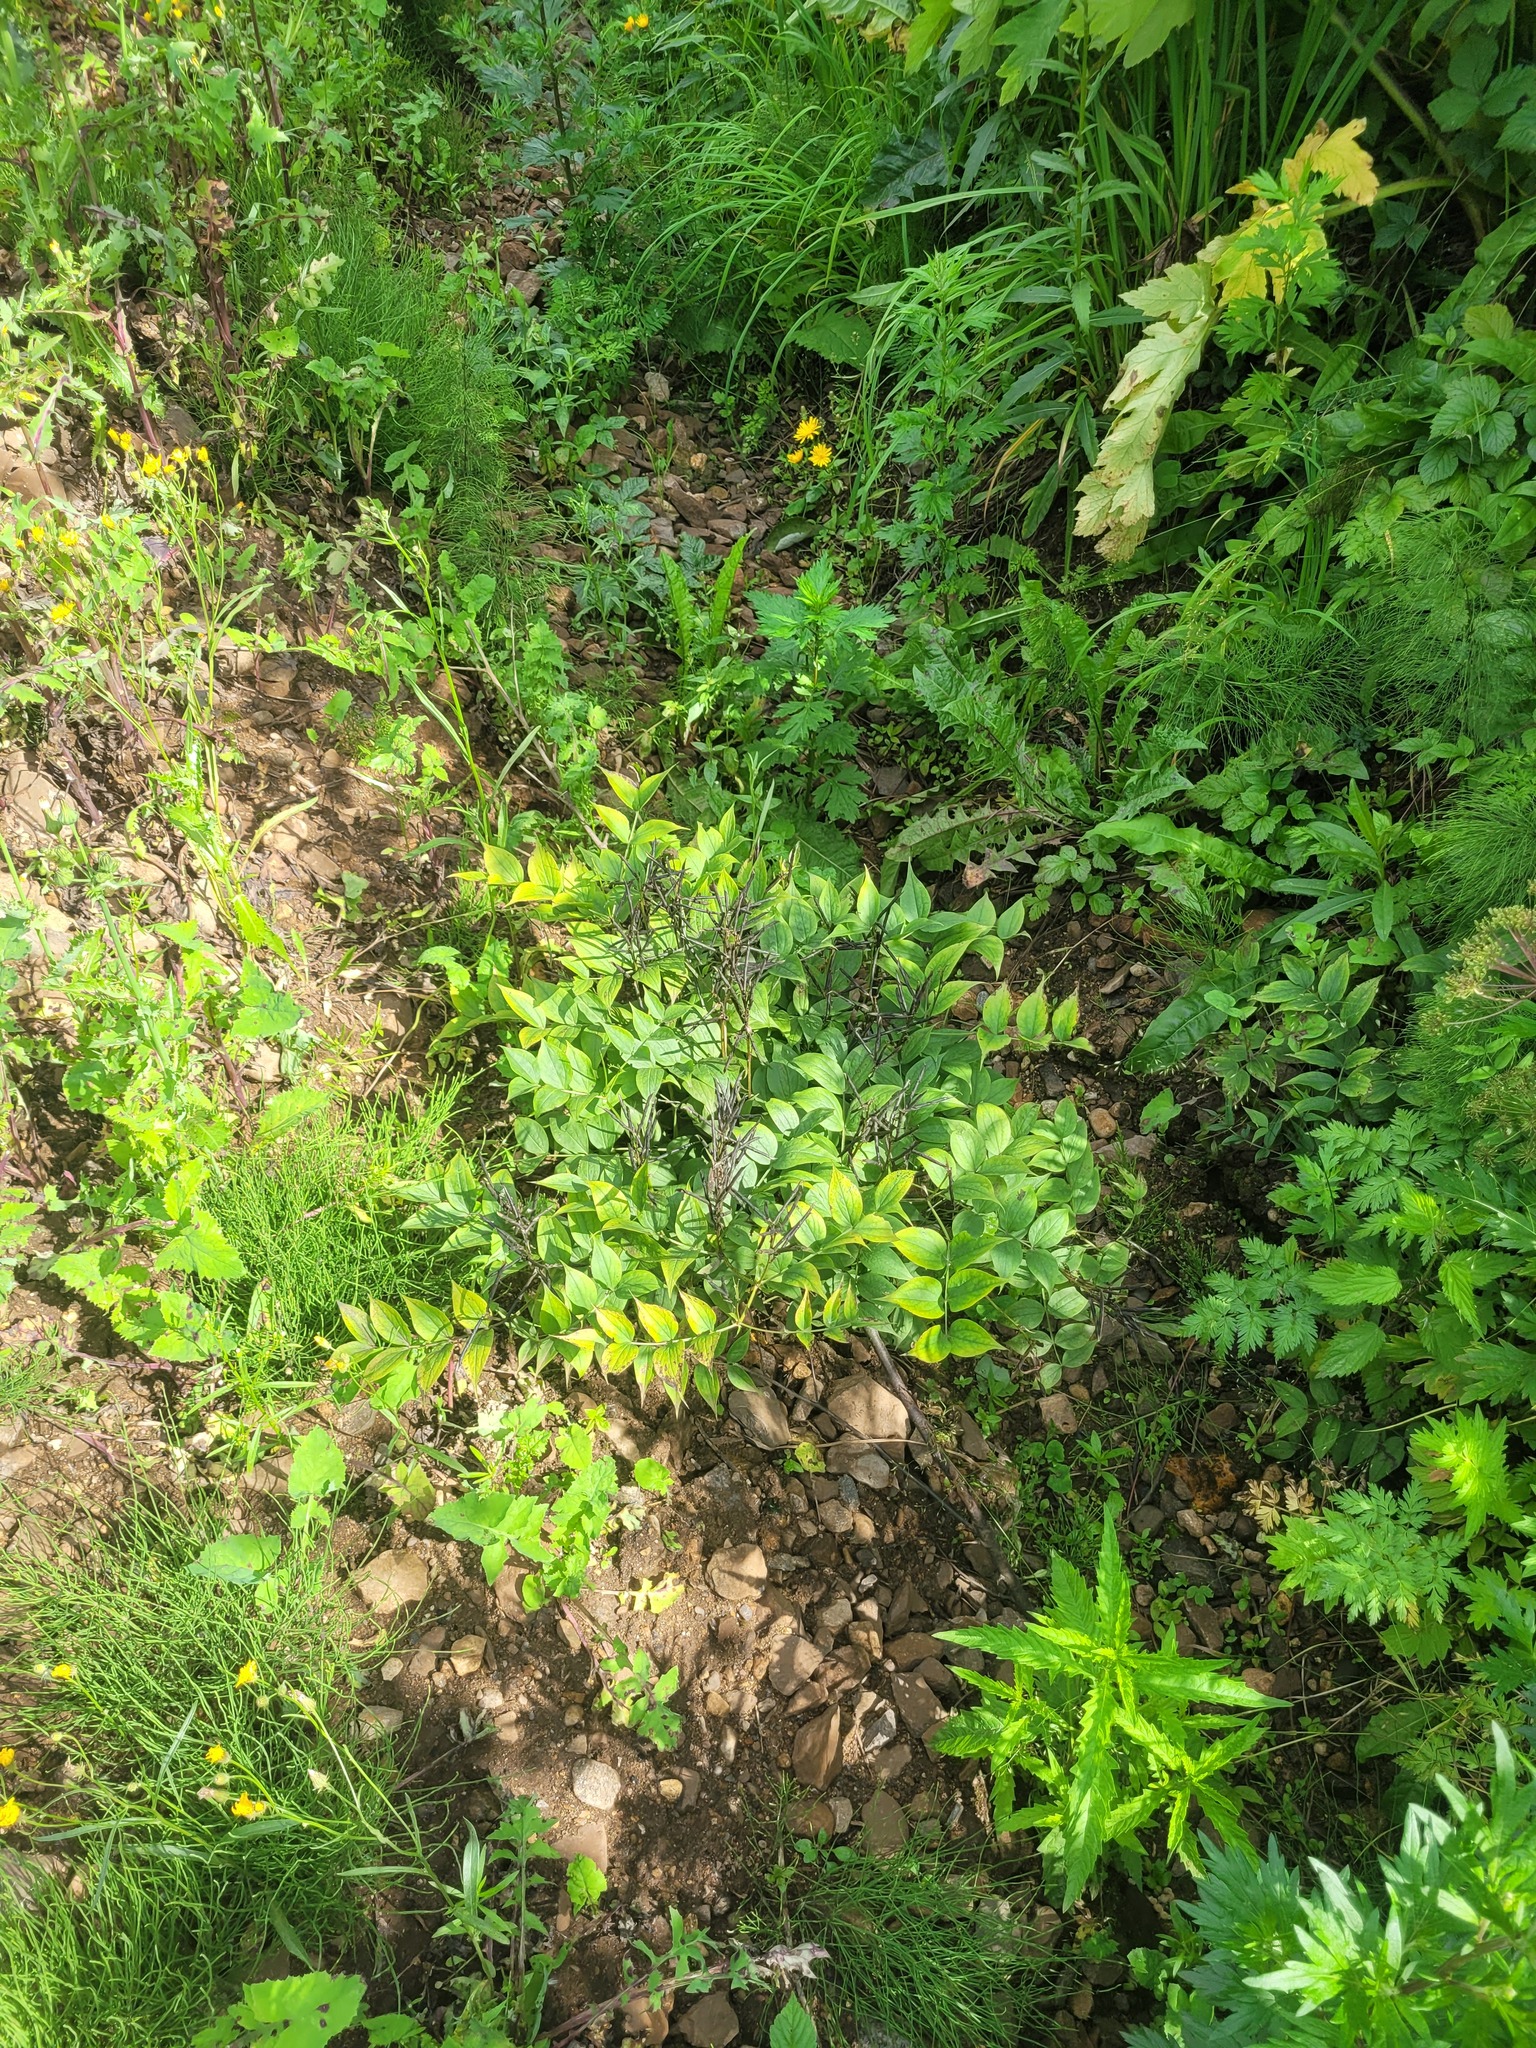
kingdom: Plantae
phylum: Tracheophyta
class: Magnoliopsida
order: Fabales
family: Fabaceae
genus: Lathyrus
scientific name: Lathyrus vernus
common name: Spring pea
